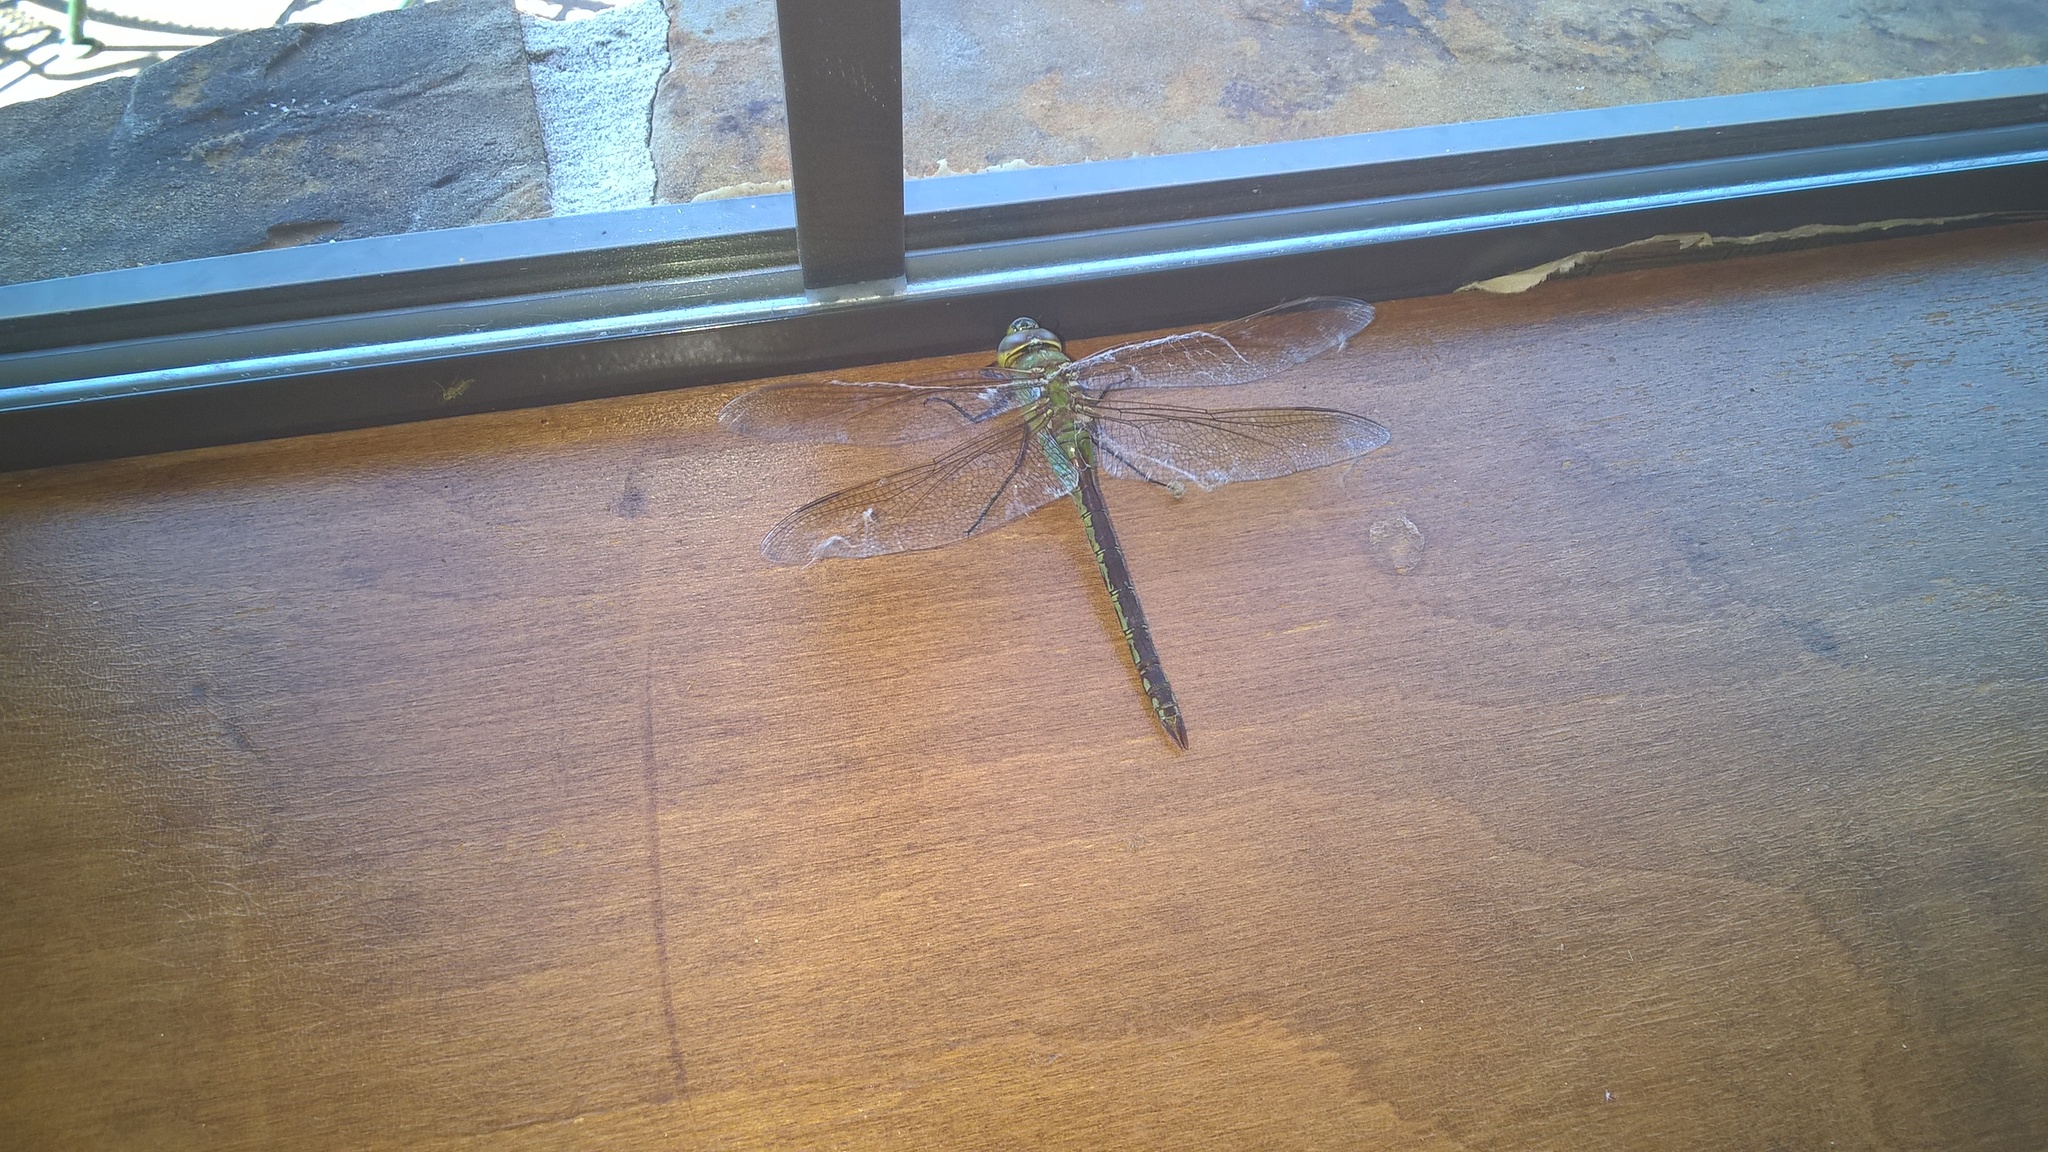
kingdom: Animalia
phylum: Arthropoda
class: Insecta
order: Odonata
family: Aeshnidae
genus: Anax
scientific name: Anax junius
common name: Common green darner
